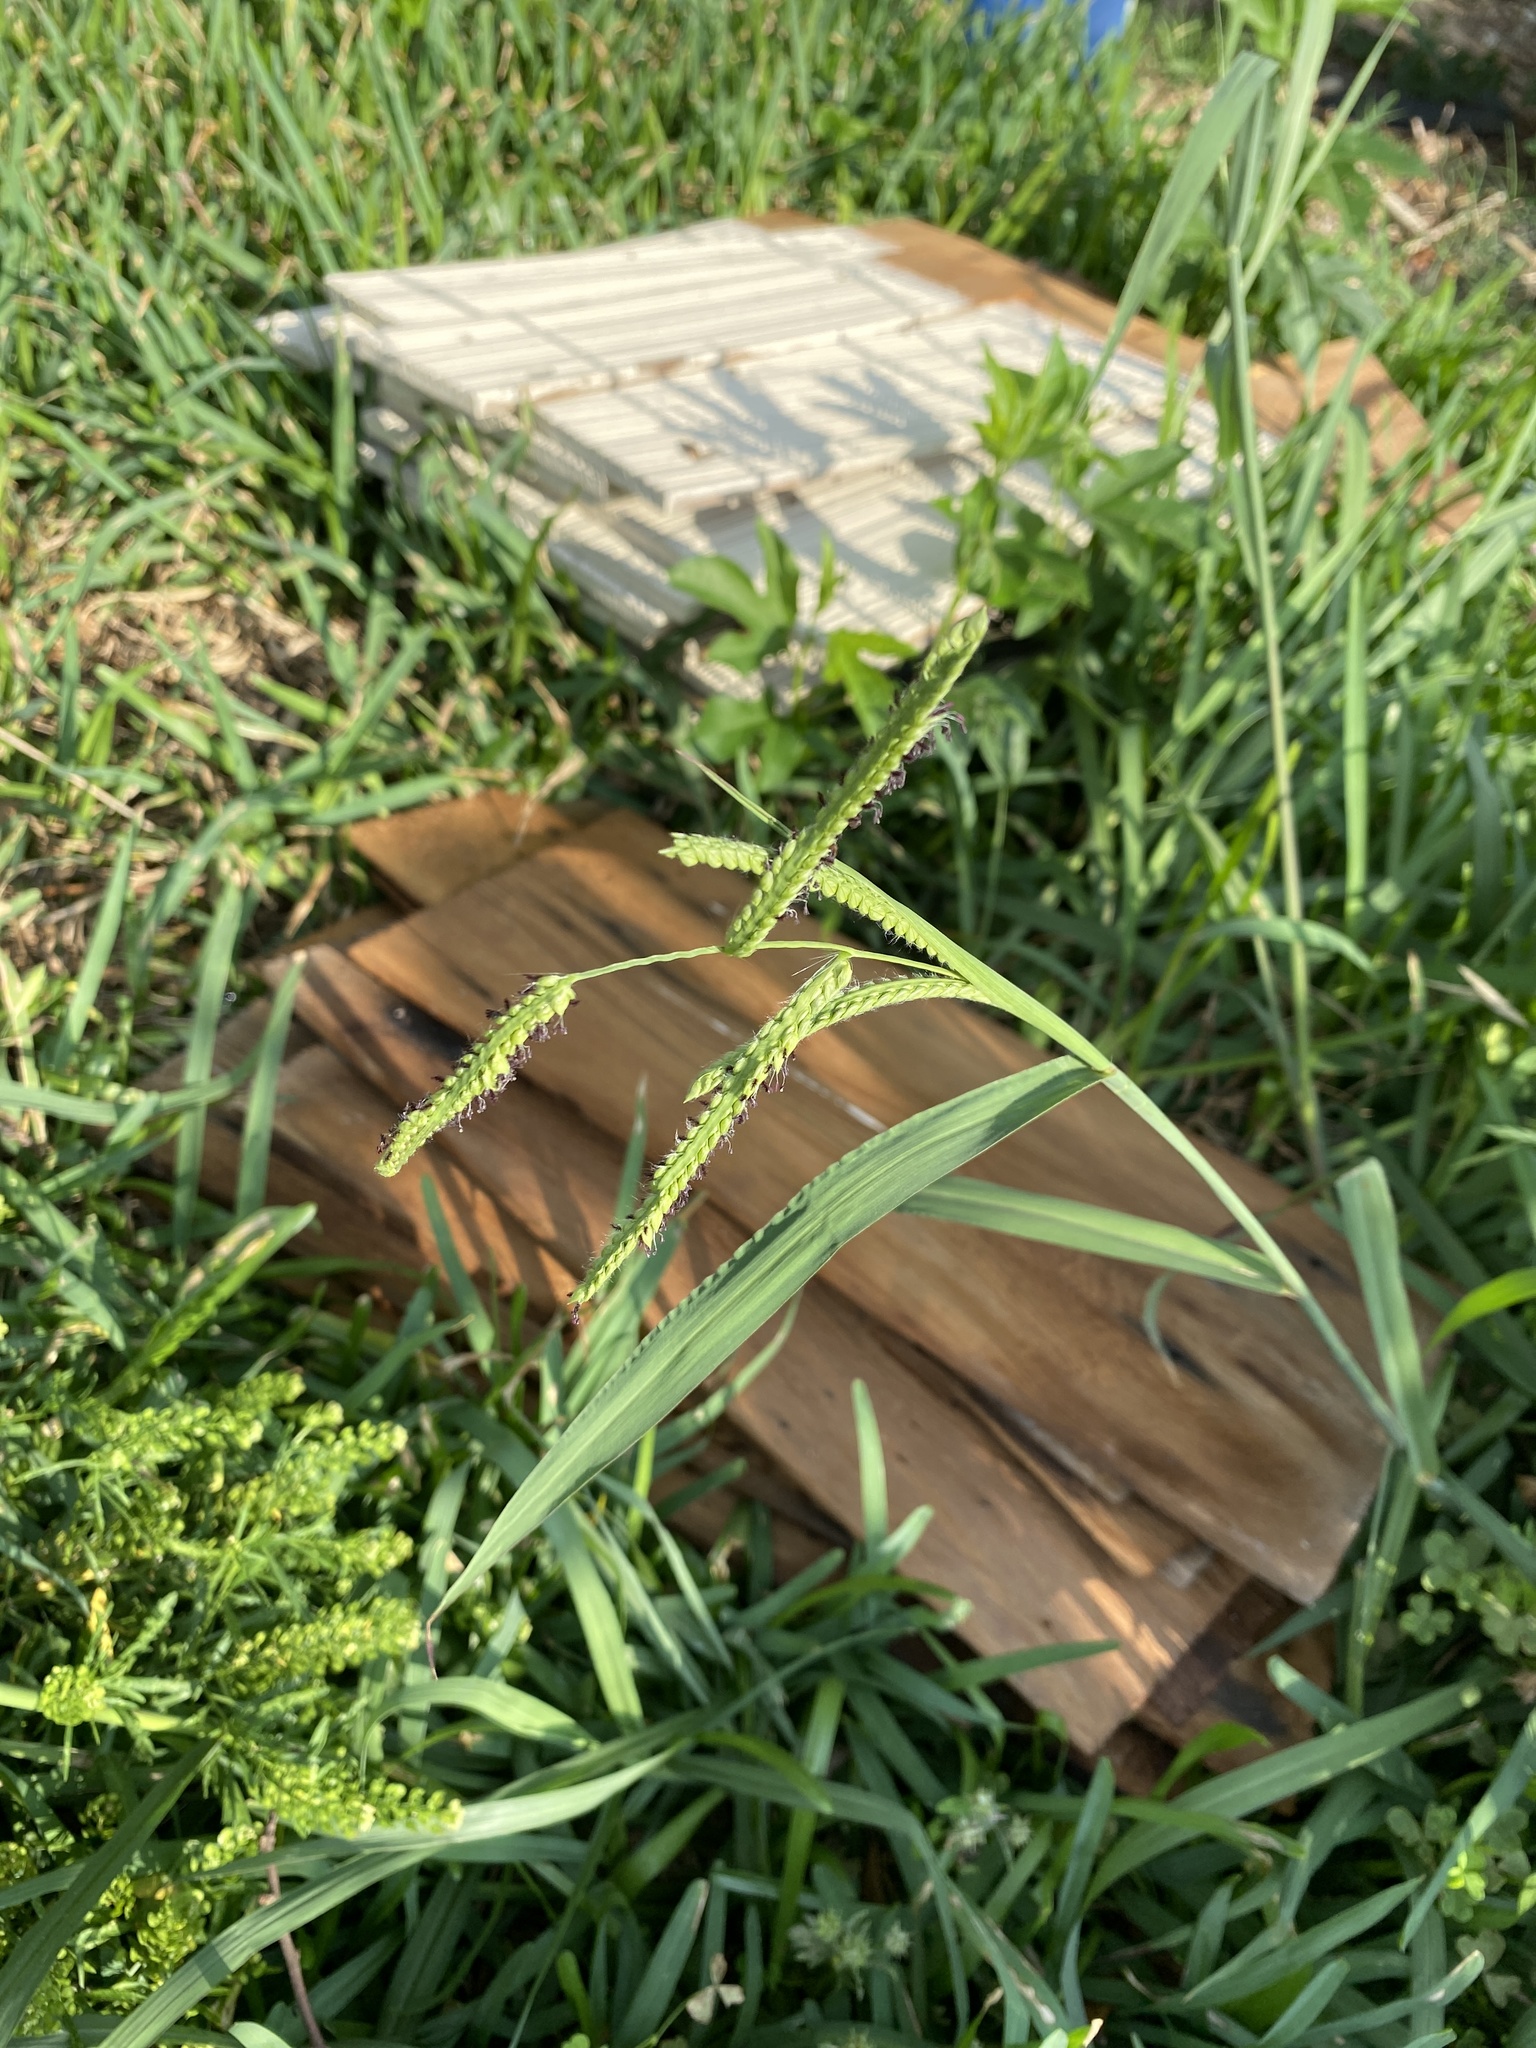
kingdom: Plantae
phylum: Tracheophyta
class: Liliopsida
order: Poales
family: Poaceae
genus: Paspalum
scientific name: Paspalum dilatatum
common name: Dallisgrass
